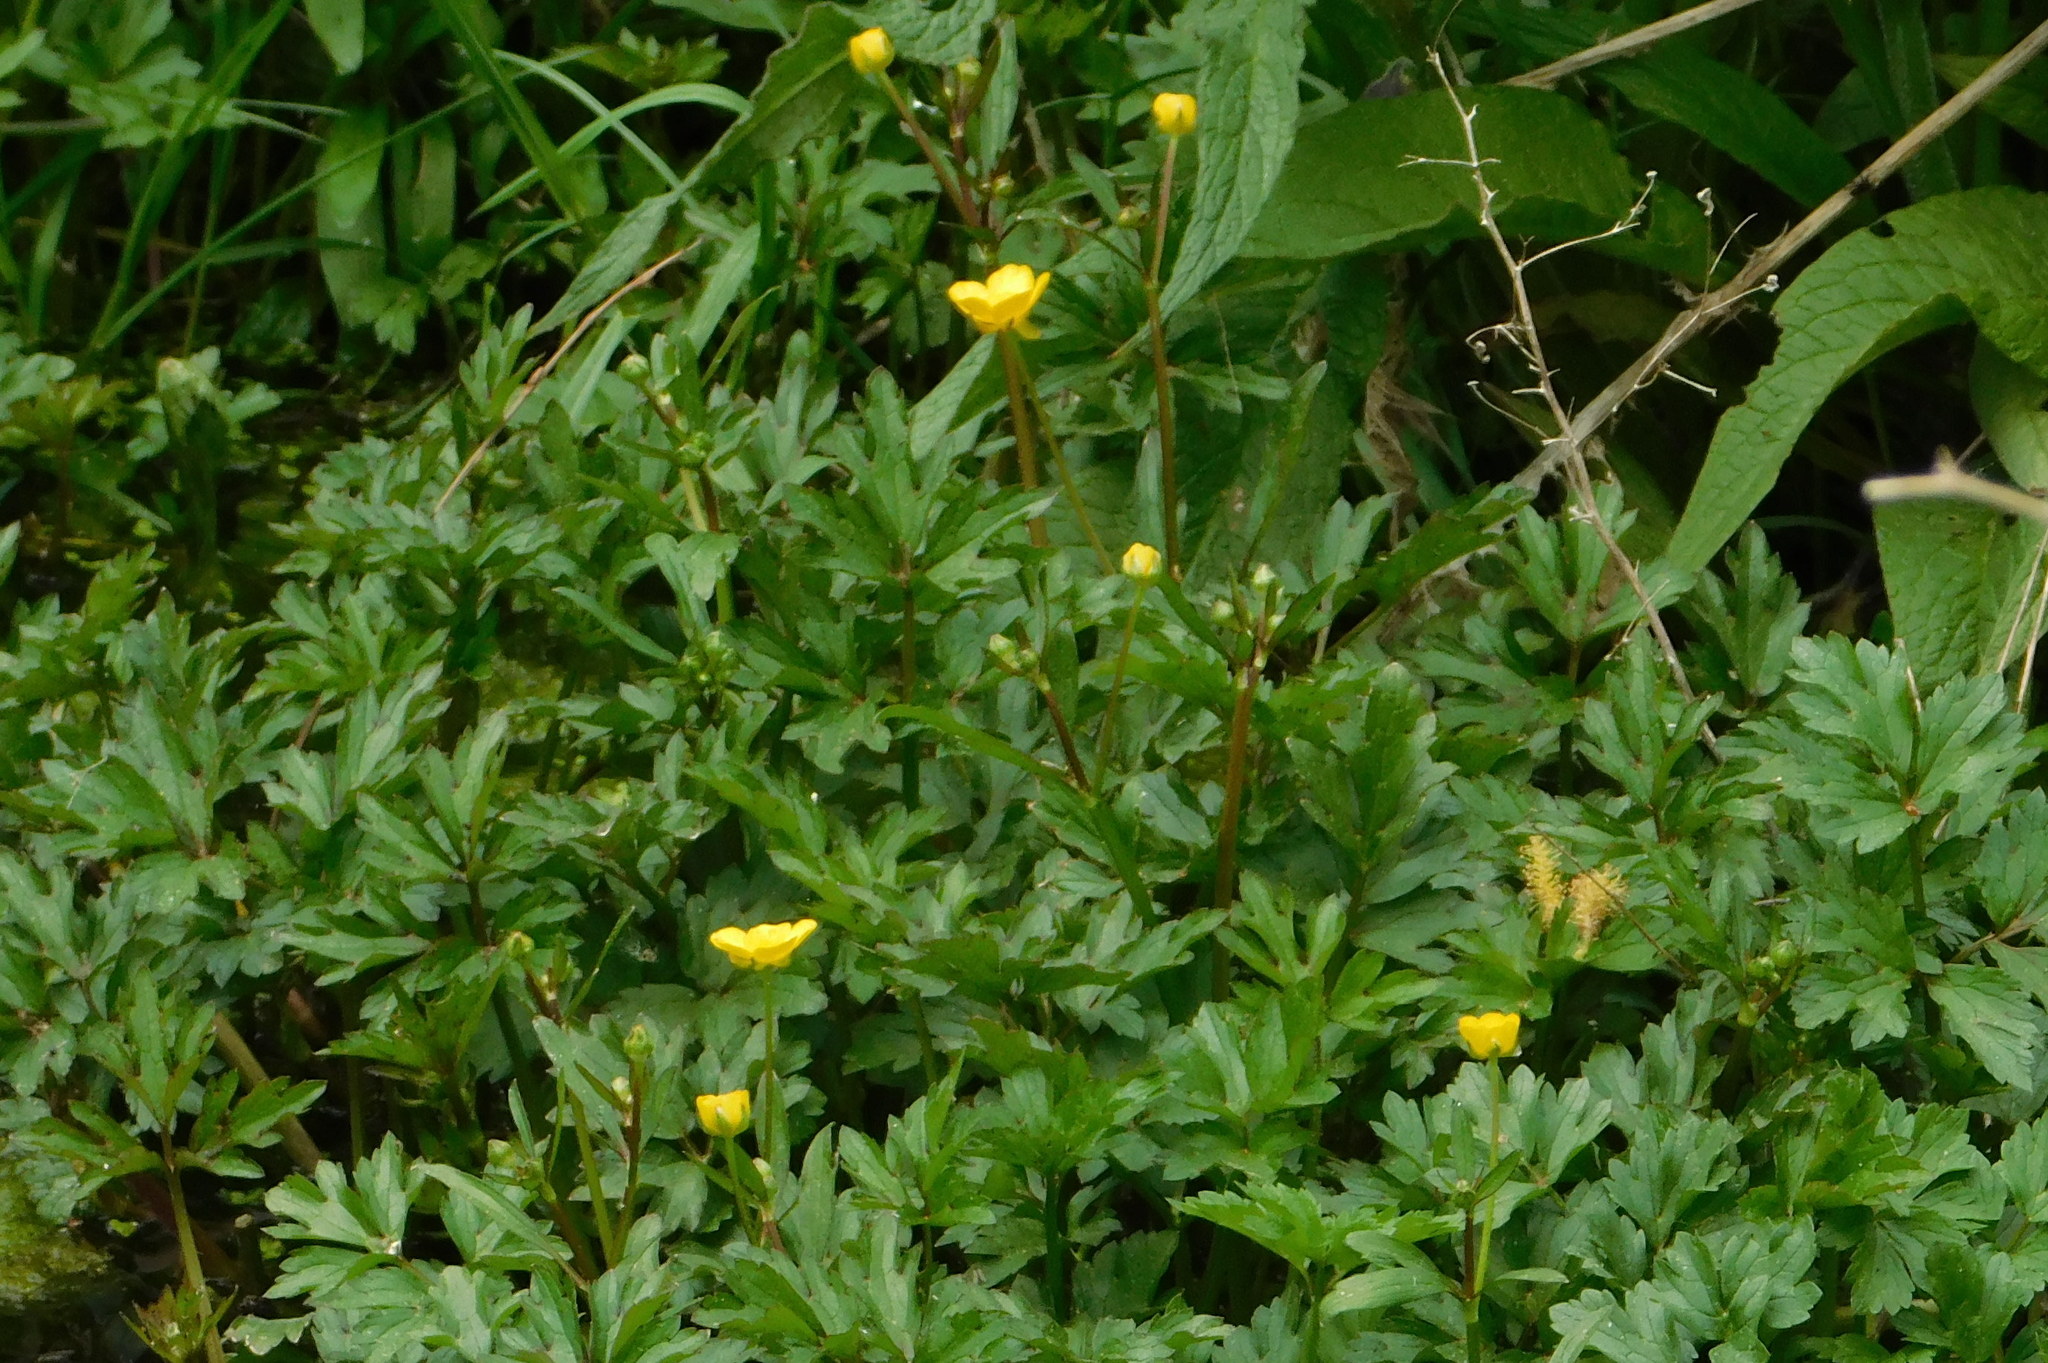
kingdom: Plantae
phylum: Tracheophyta
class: Magnoliopsida
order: Ranunculales
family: Ranunculaceae
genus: Ranunculus
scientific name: Ranunculus repens
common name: Creeping buttercup
